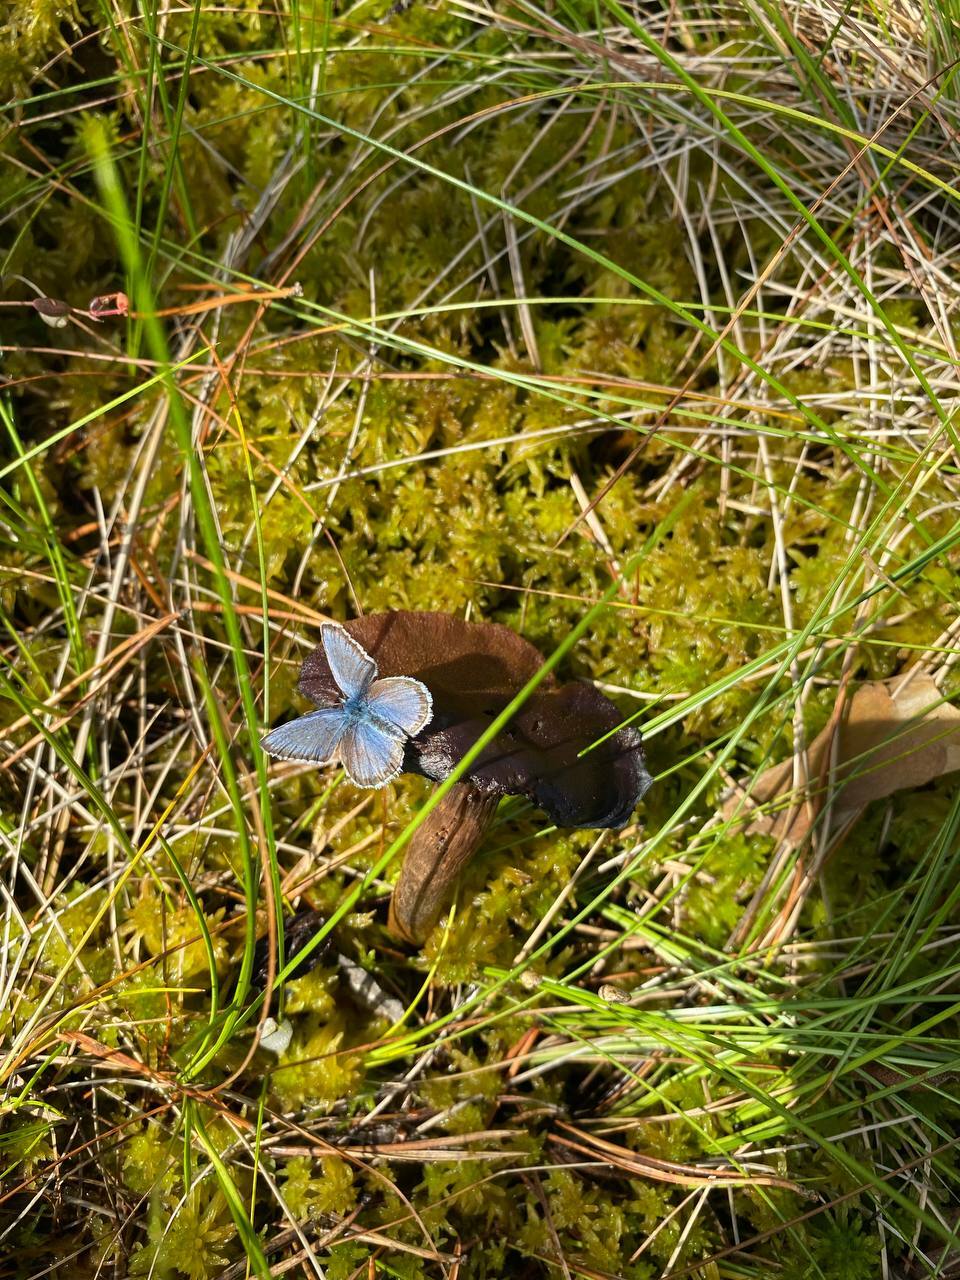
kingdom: Animalia
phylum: Arthropoda
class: Insecta
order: Lepidoptera
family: Lycaenidae
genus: Lycaeides
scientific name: Lycaeides idas
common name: Northern blue
